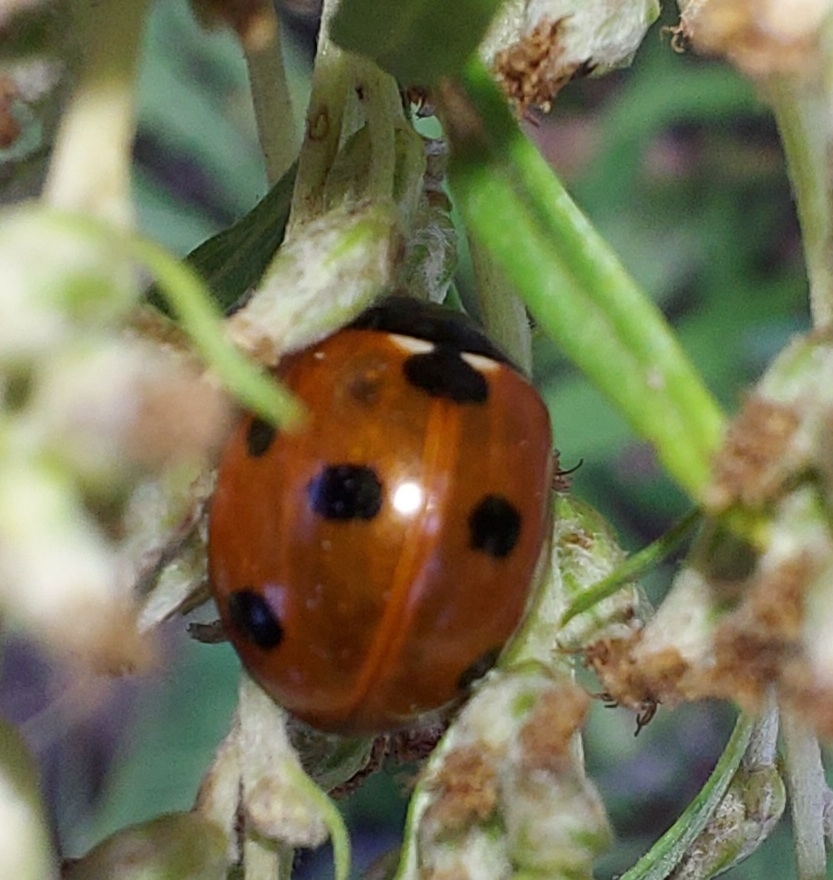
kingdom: Animalia
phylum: Arthropoda
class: Insecta
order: Coleoptera
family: Coccinellidae
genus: Coccinella
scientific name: Coccinella septempunctata
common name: Sevenspotted lady beetle
